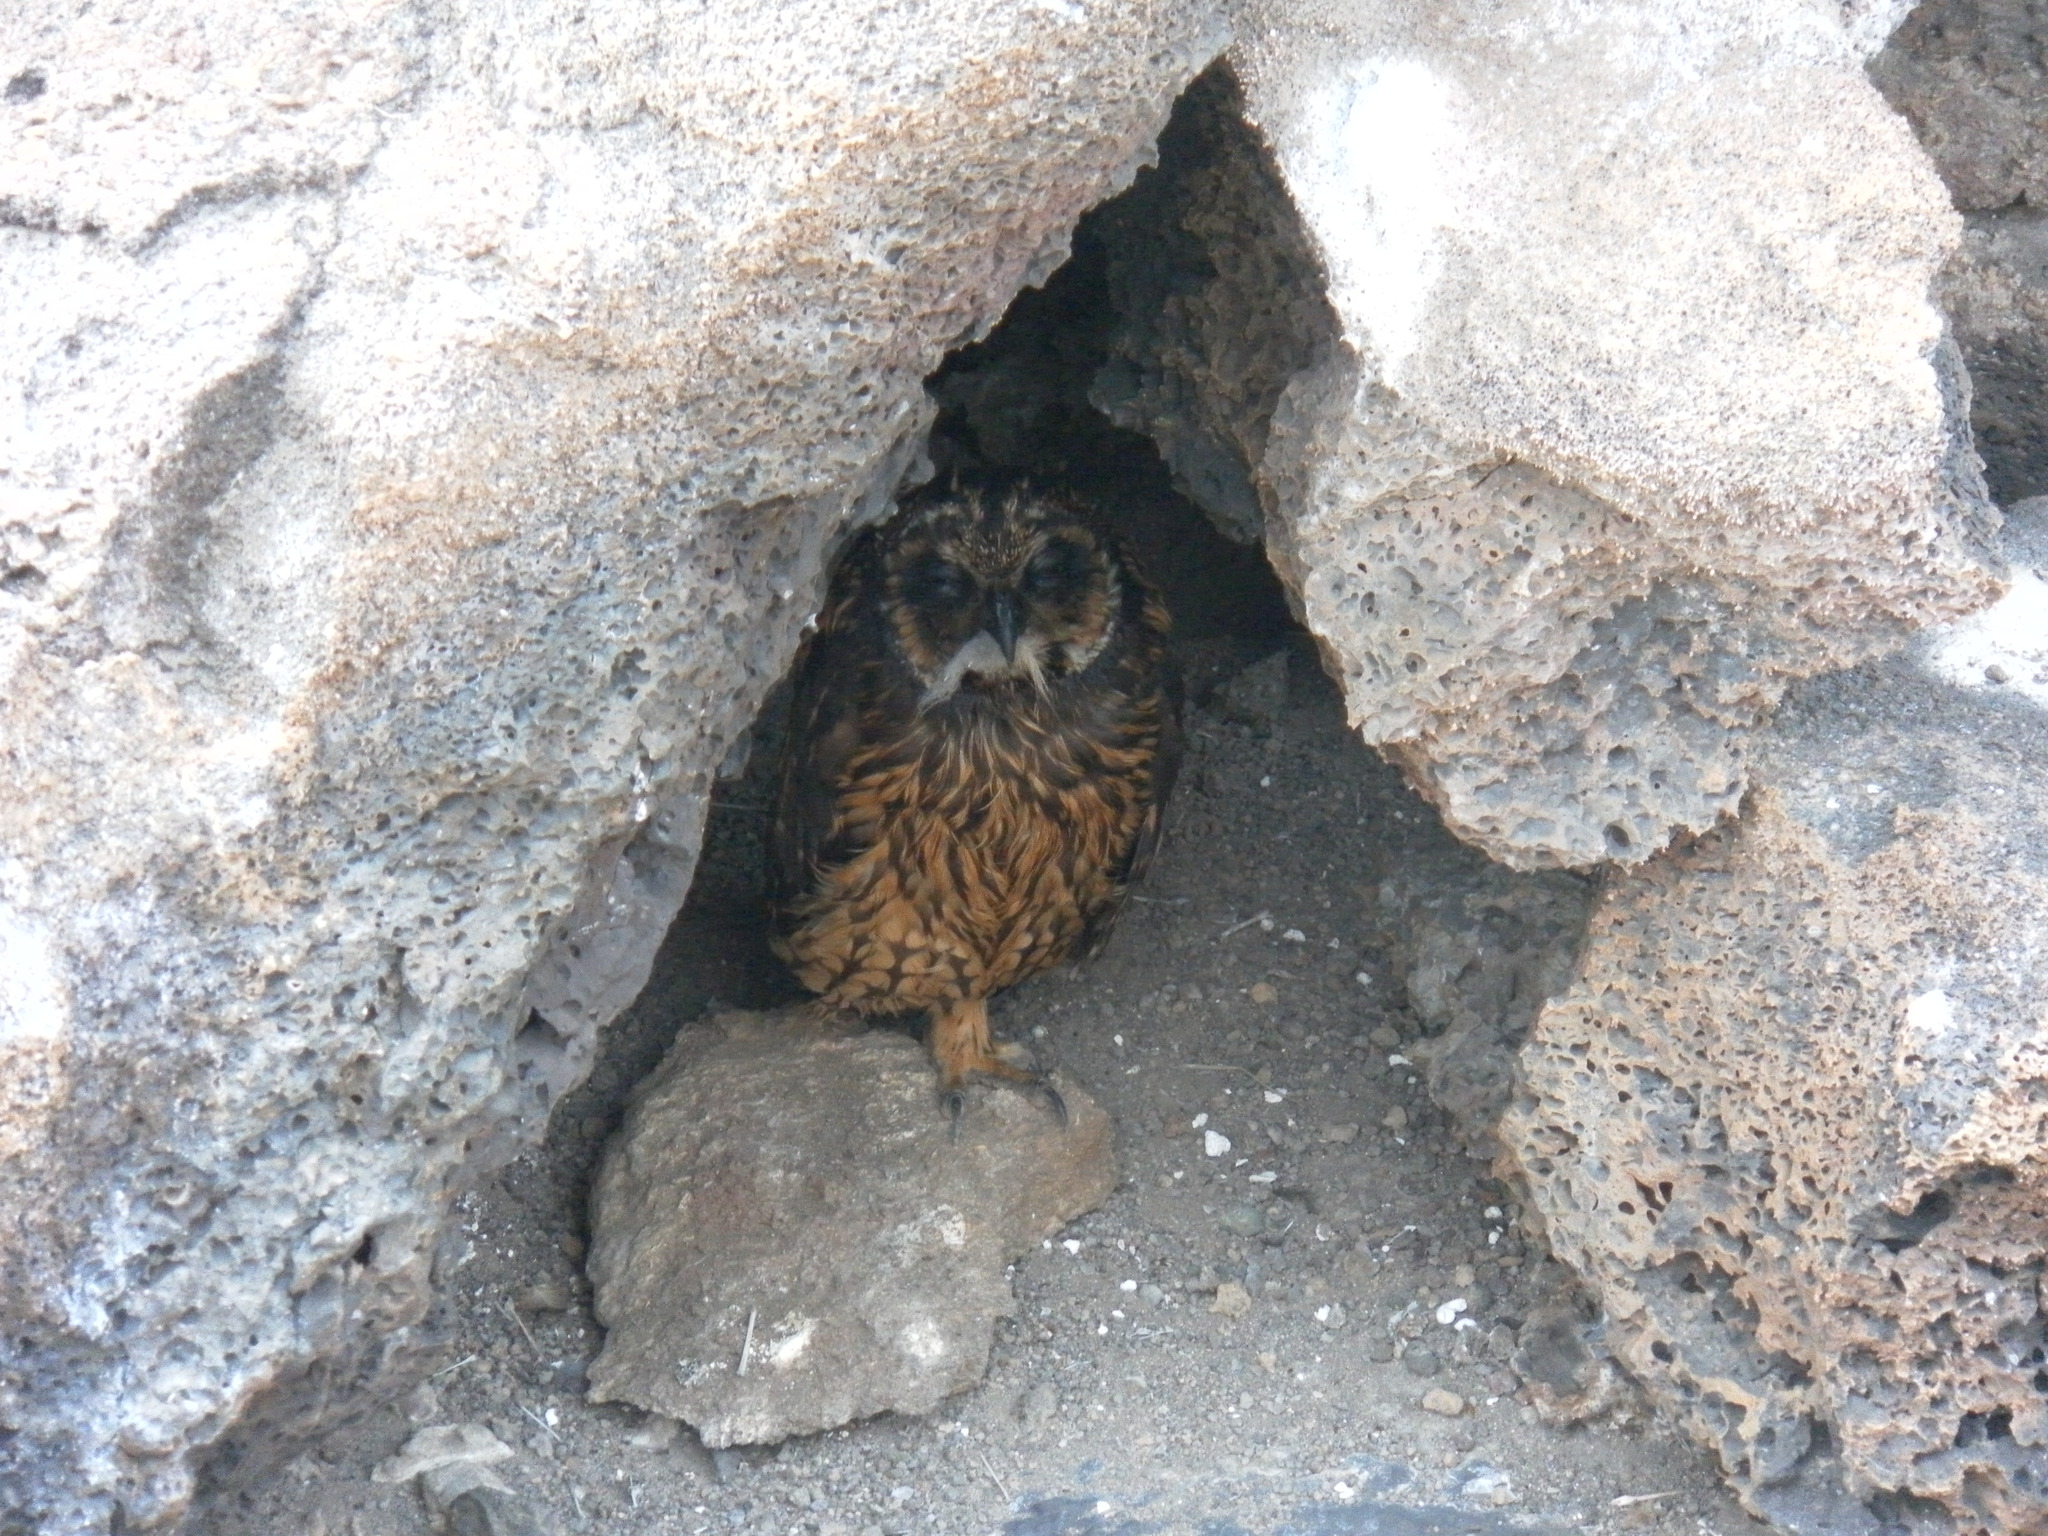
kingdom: Animalia
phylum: Chordata
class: Aves
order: Strigiformes
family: Strigidae
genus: Asio
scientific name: Asio flammeus
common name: Short-eared owl
